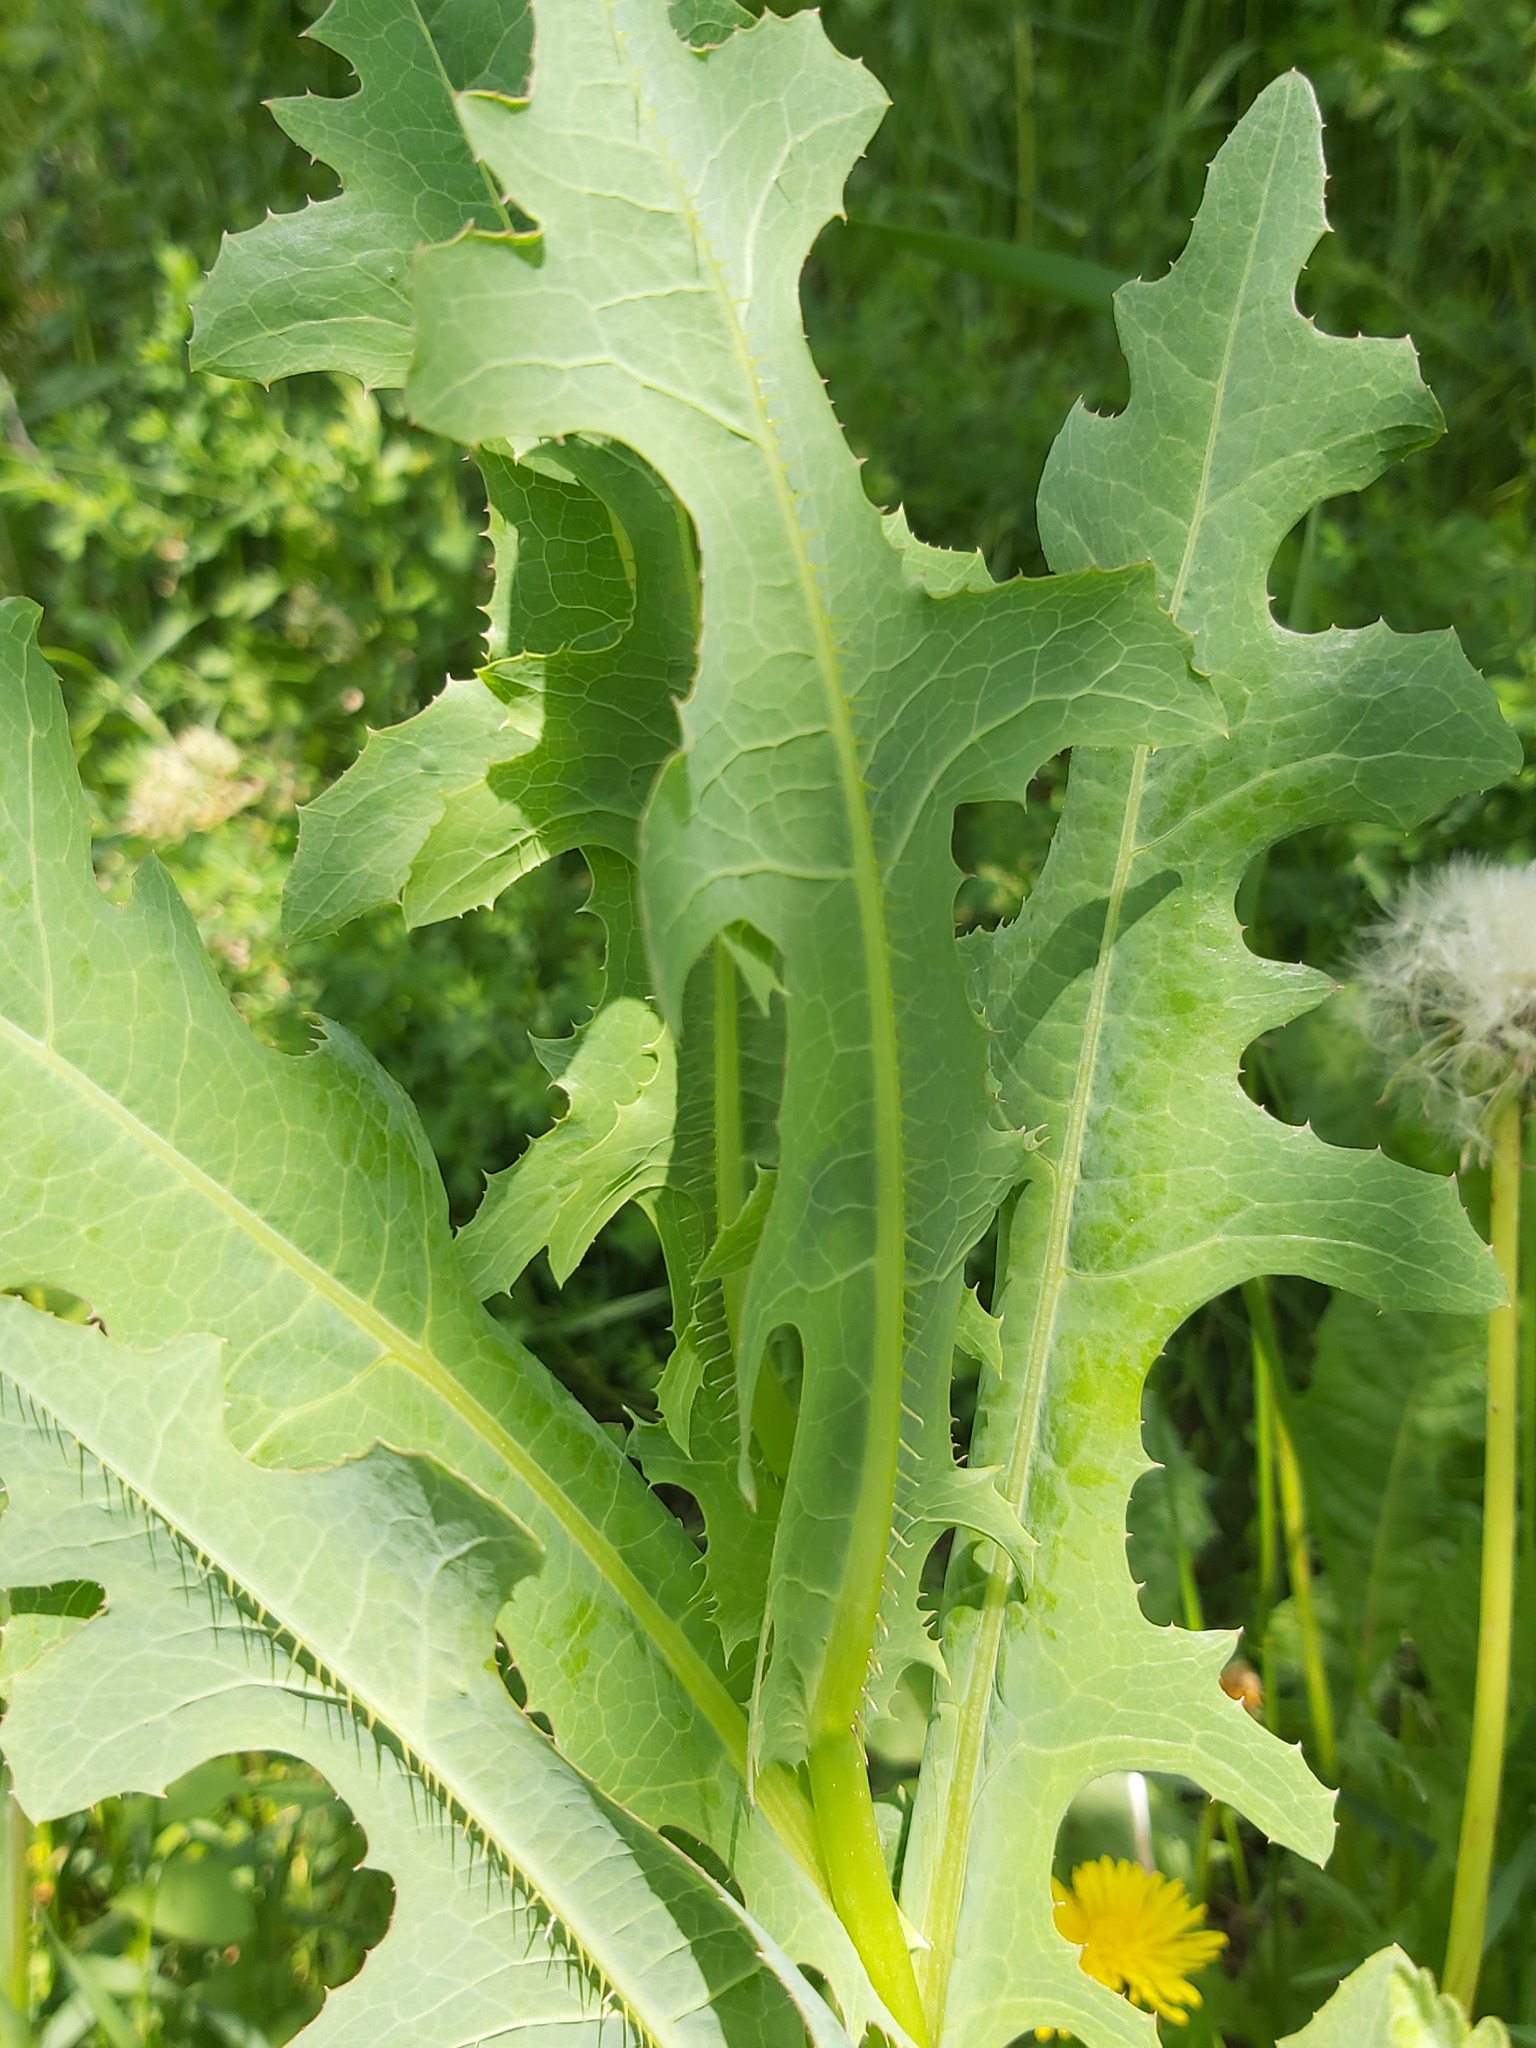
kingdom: Plantae
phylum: Tracheophyta
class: Magnoliopsida
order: Asterales
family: Asteraceae
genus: Lactuca
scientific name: Lactuca serriola
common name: Prickly lettuce
